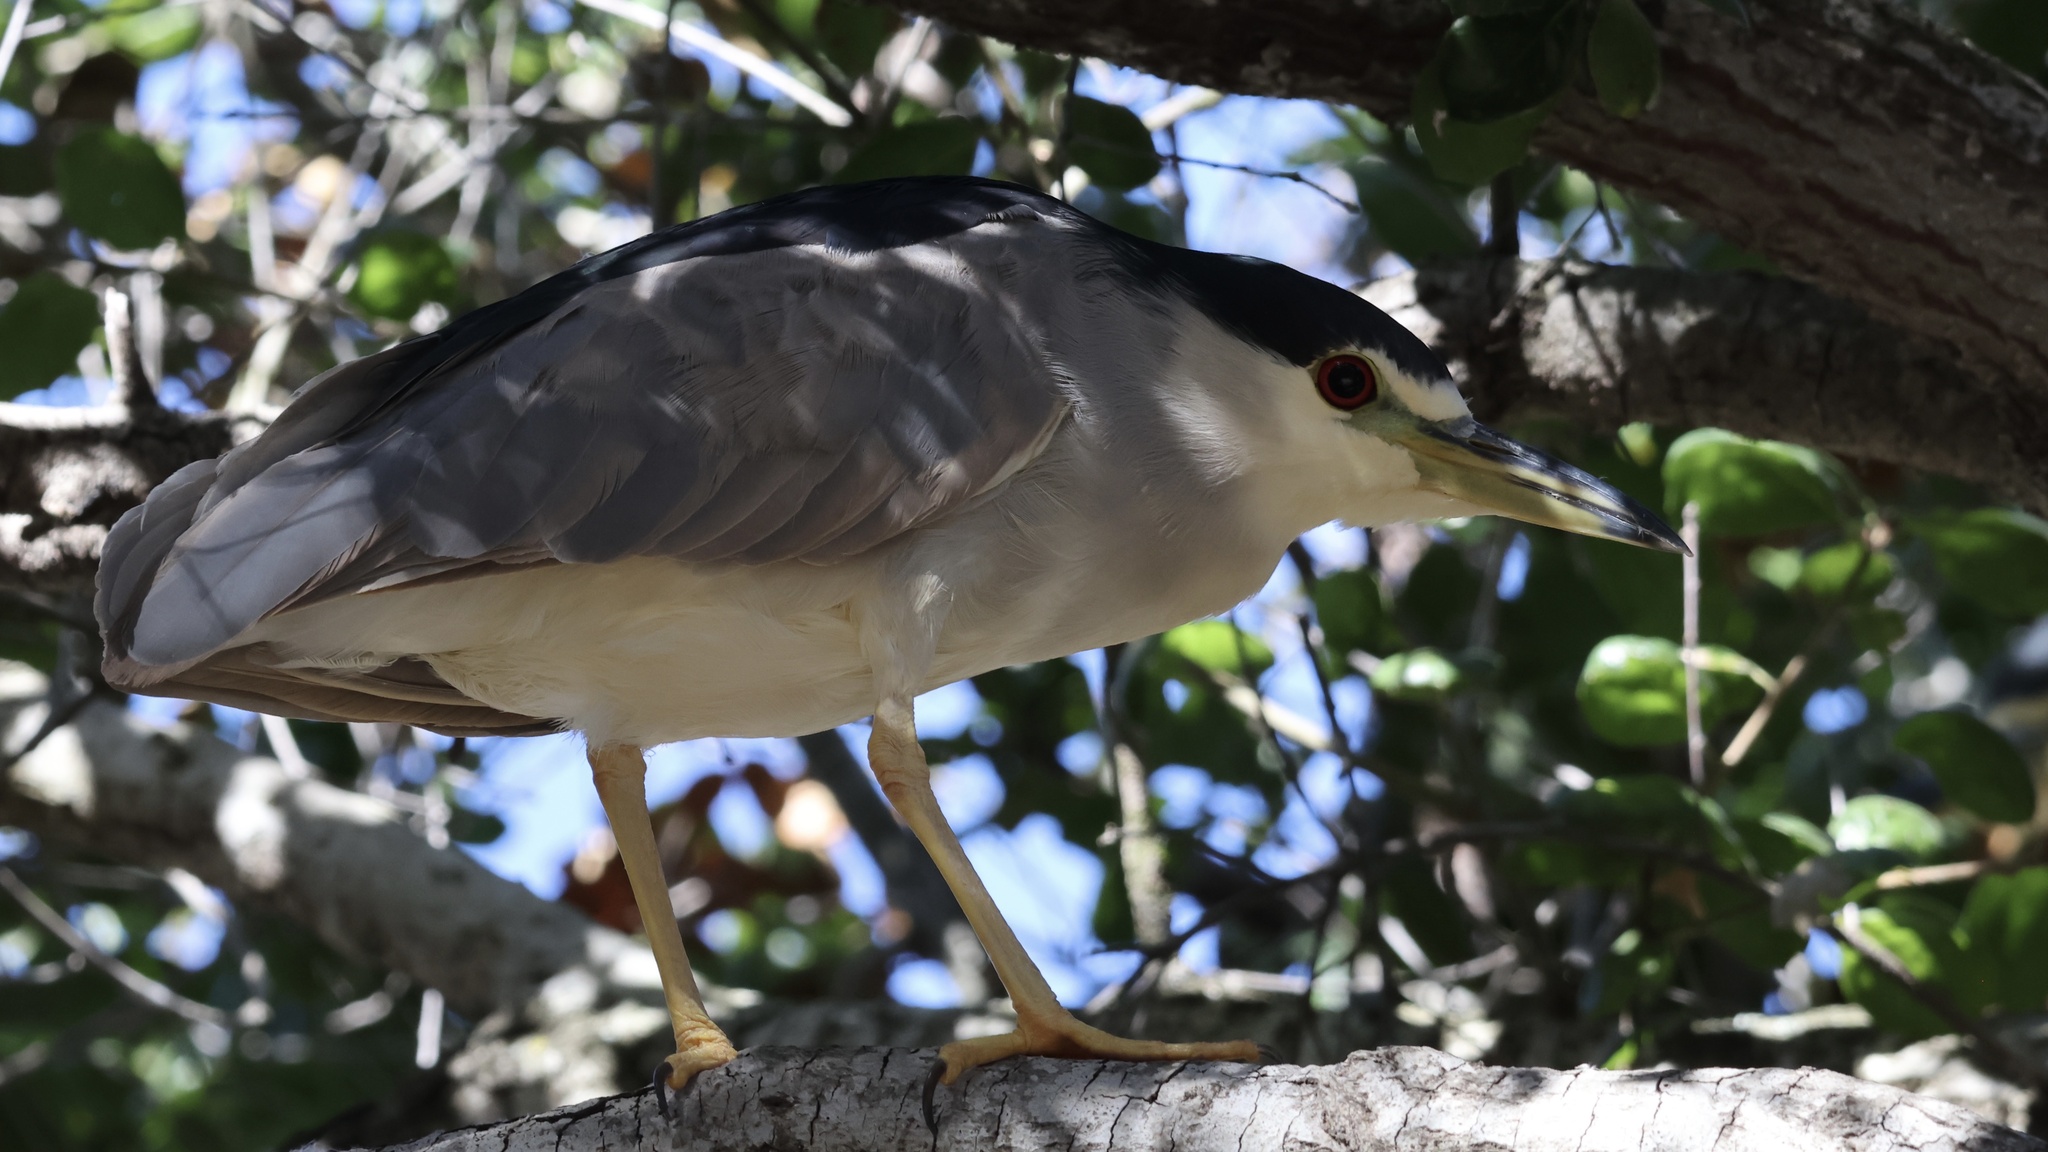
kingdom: Animalia
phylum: Chordata
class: Aves
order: Pelecaniformes
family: Ardeidae
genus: Nycticorax
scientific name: Nycticorax nycticorax
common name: Black-crowned night heron
